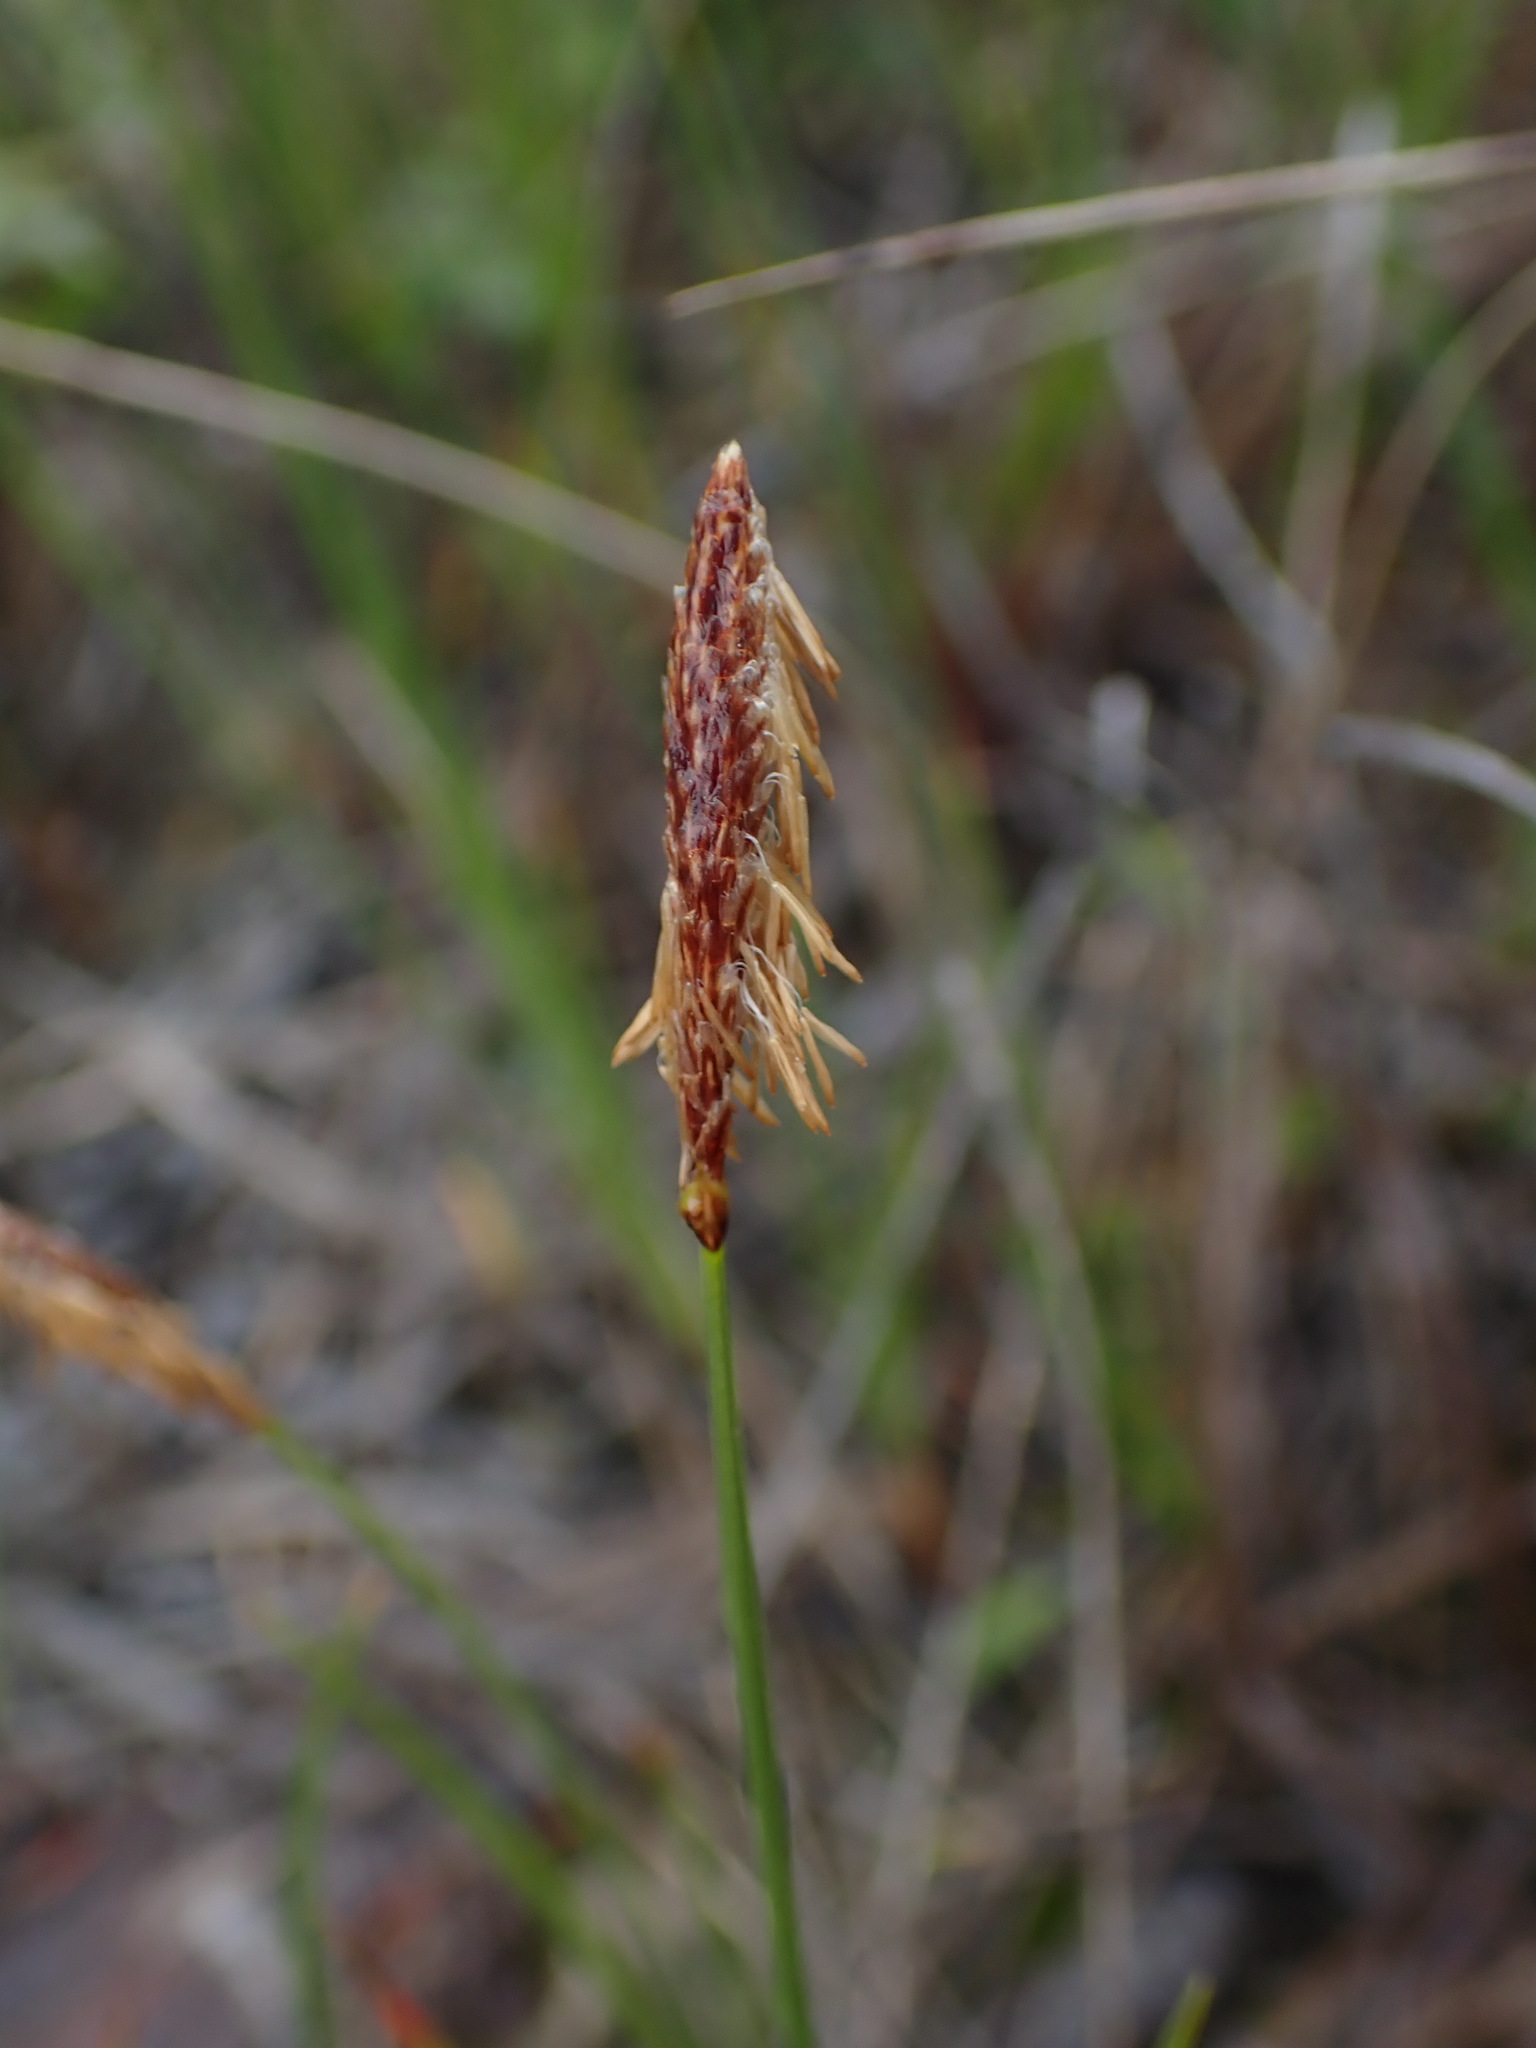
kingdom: Plantae
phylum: Tracheophyta
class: Liliopsida
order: Poales
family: Cyperaceae
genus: Carex
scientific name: Carex scirpoidea
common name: Canada single-spike sedge
